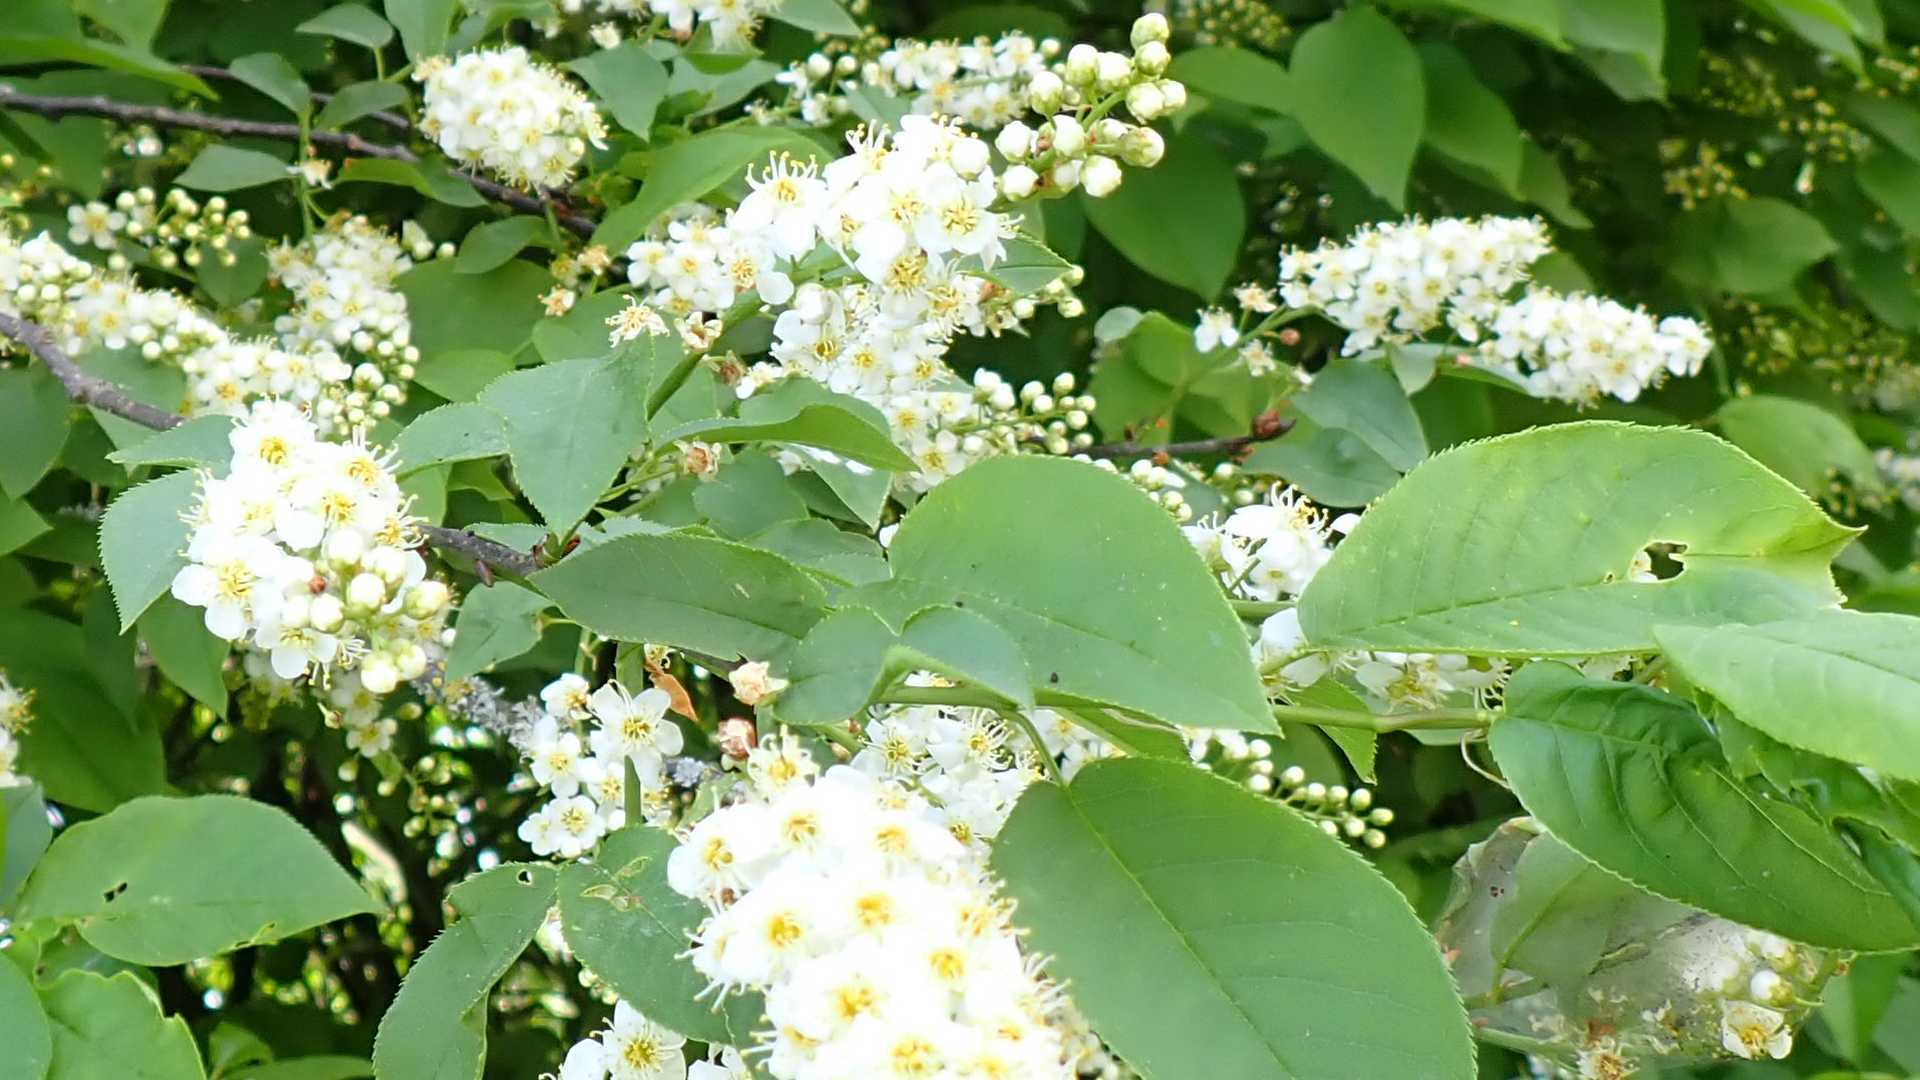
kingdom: Plantae
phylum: Tracheophyta
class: Magnoliopsida
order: Rosales
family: Rosaceae
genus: Prunus
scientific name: Prunus padus
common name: Bird cherry
